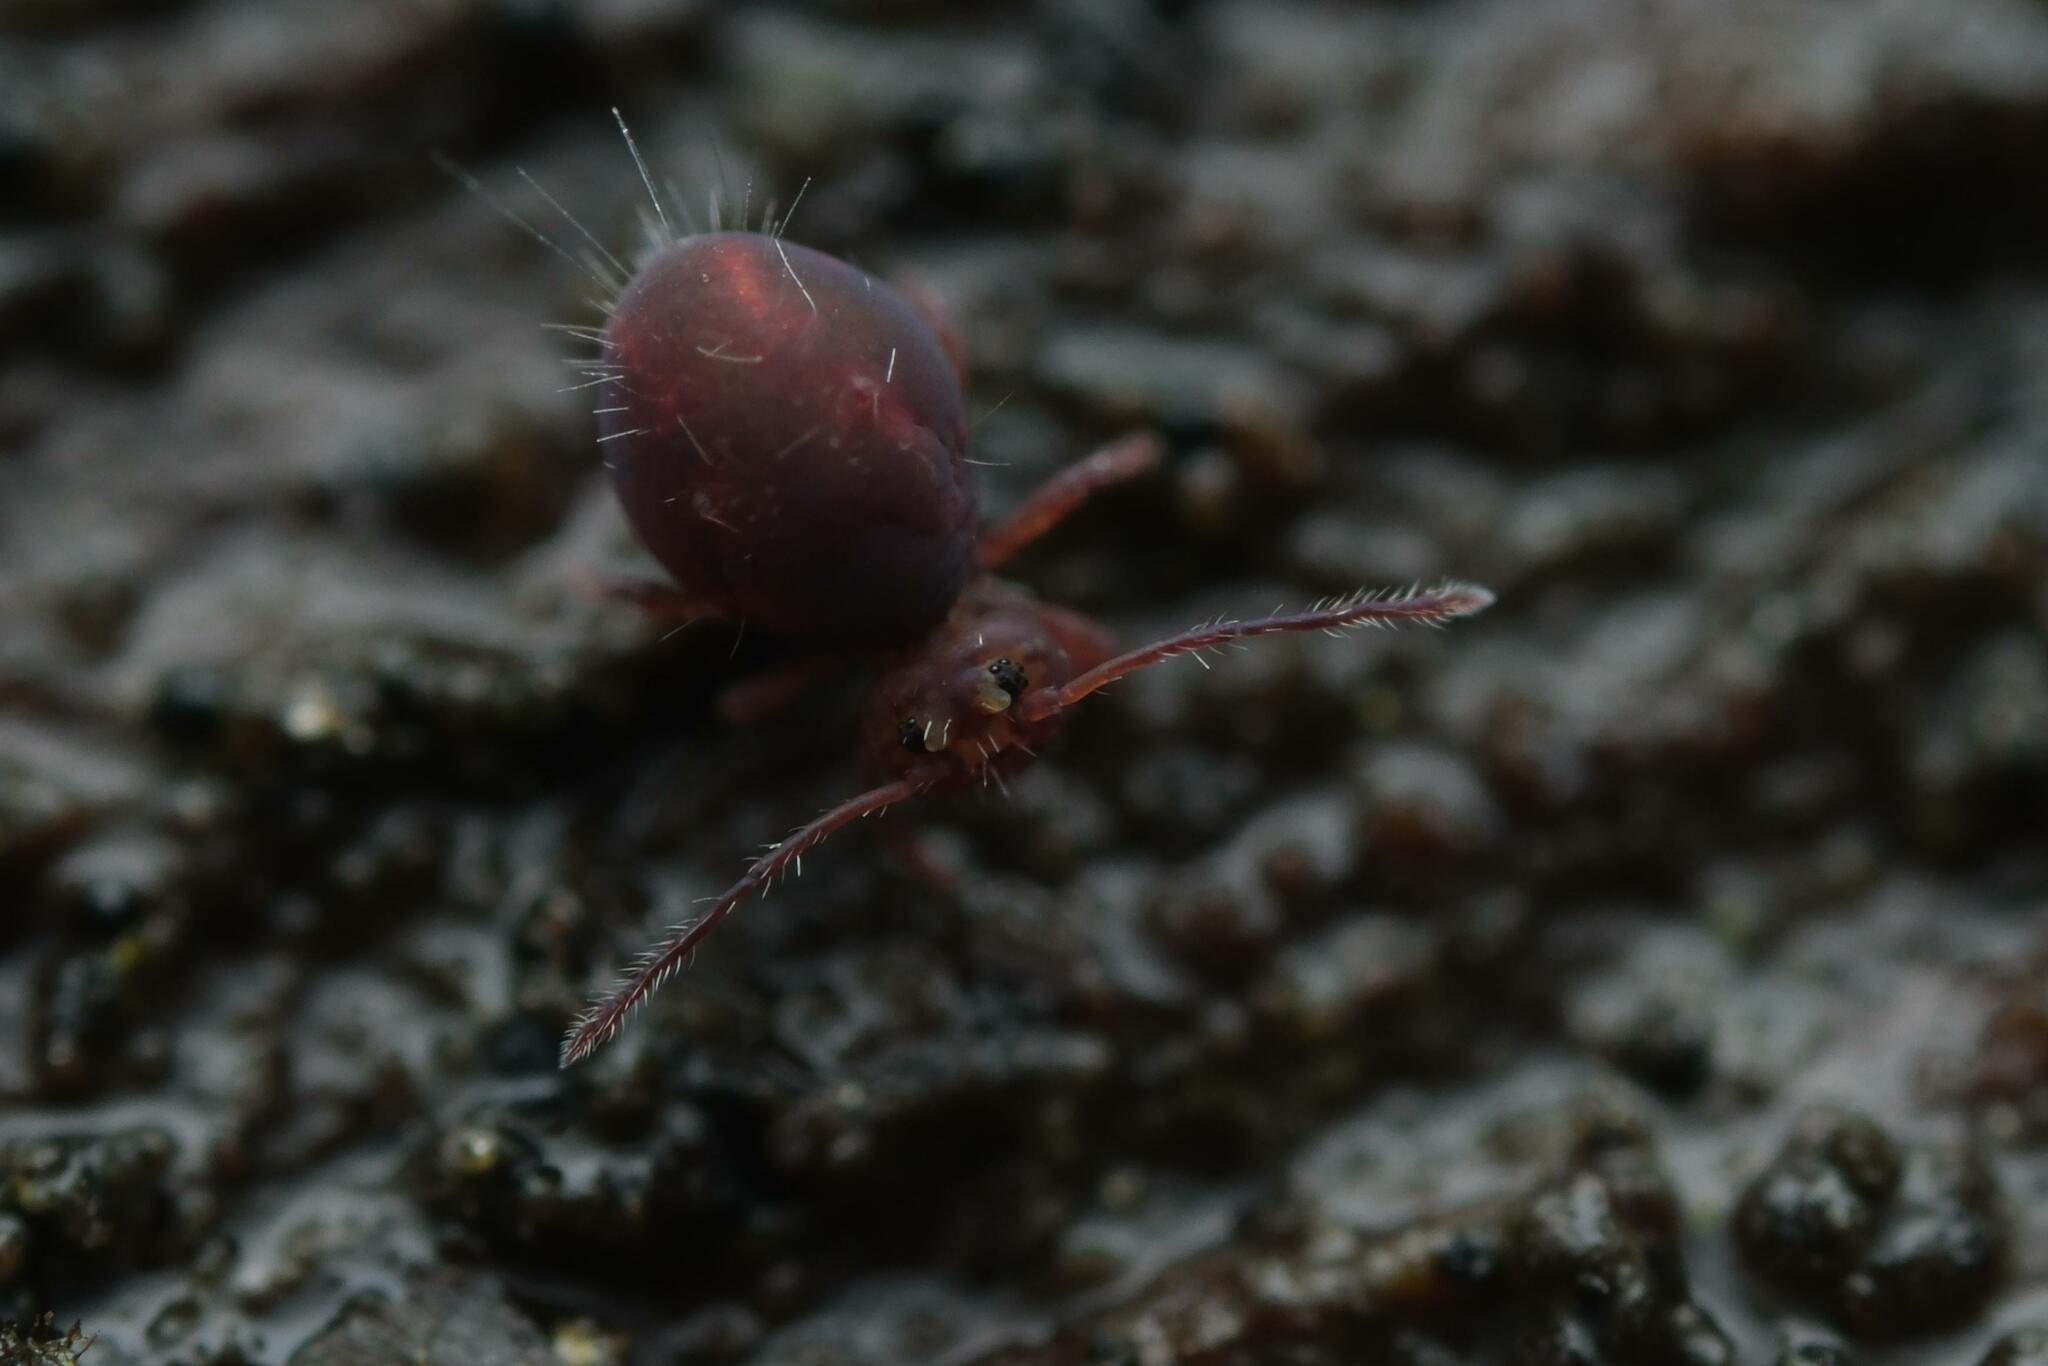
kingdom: Animalia
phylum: Arthropoda
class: Collembola
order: Symphypleona
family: Dicyrtomidae
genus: Dicyrtoma
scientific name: Dicyrtoma fusca
